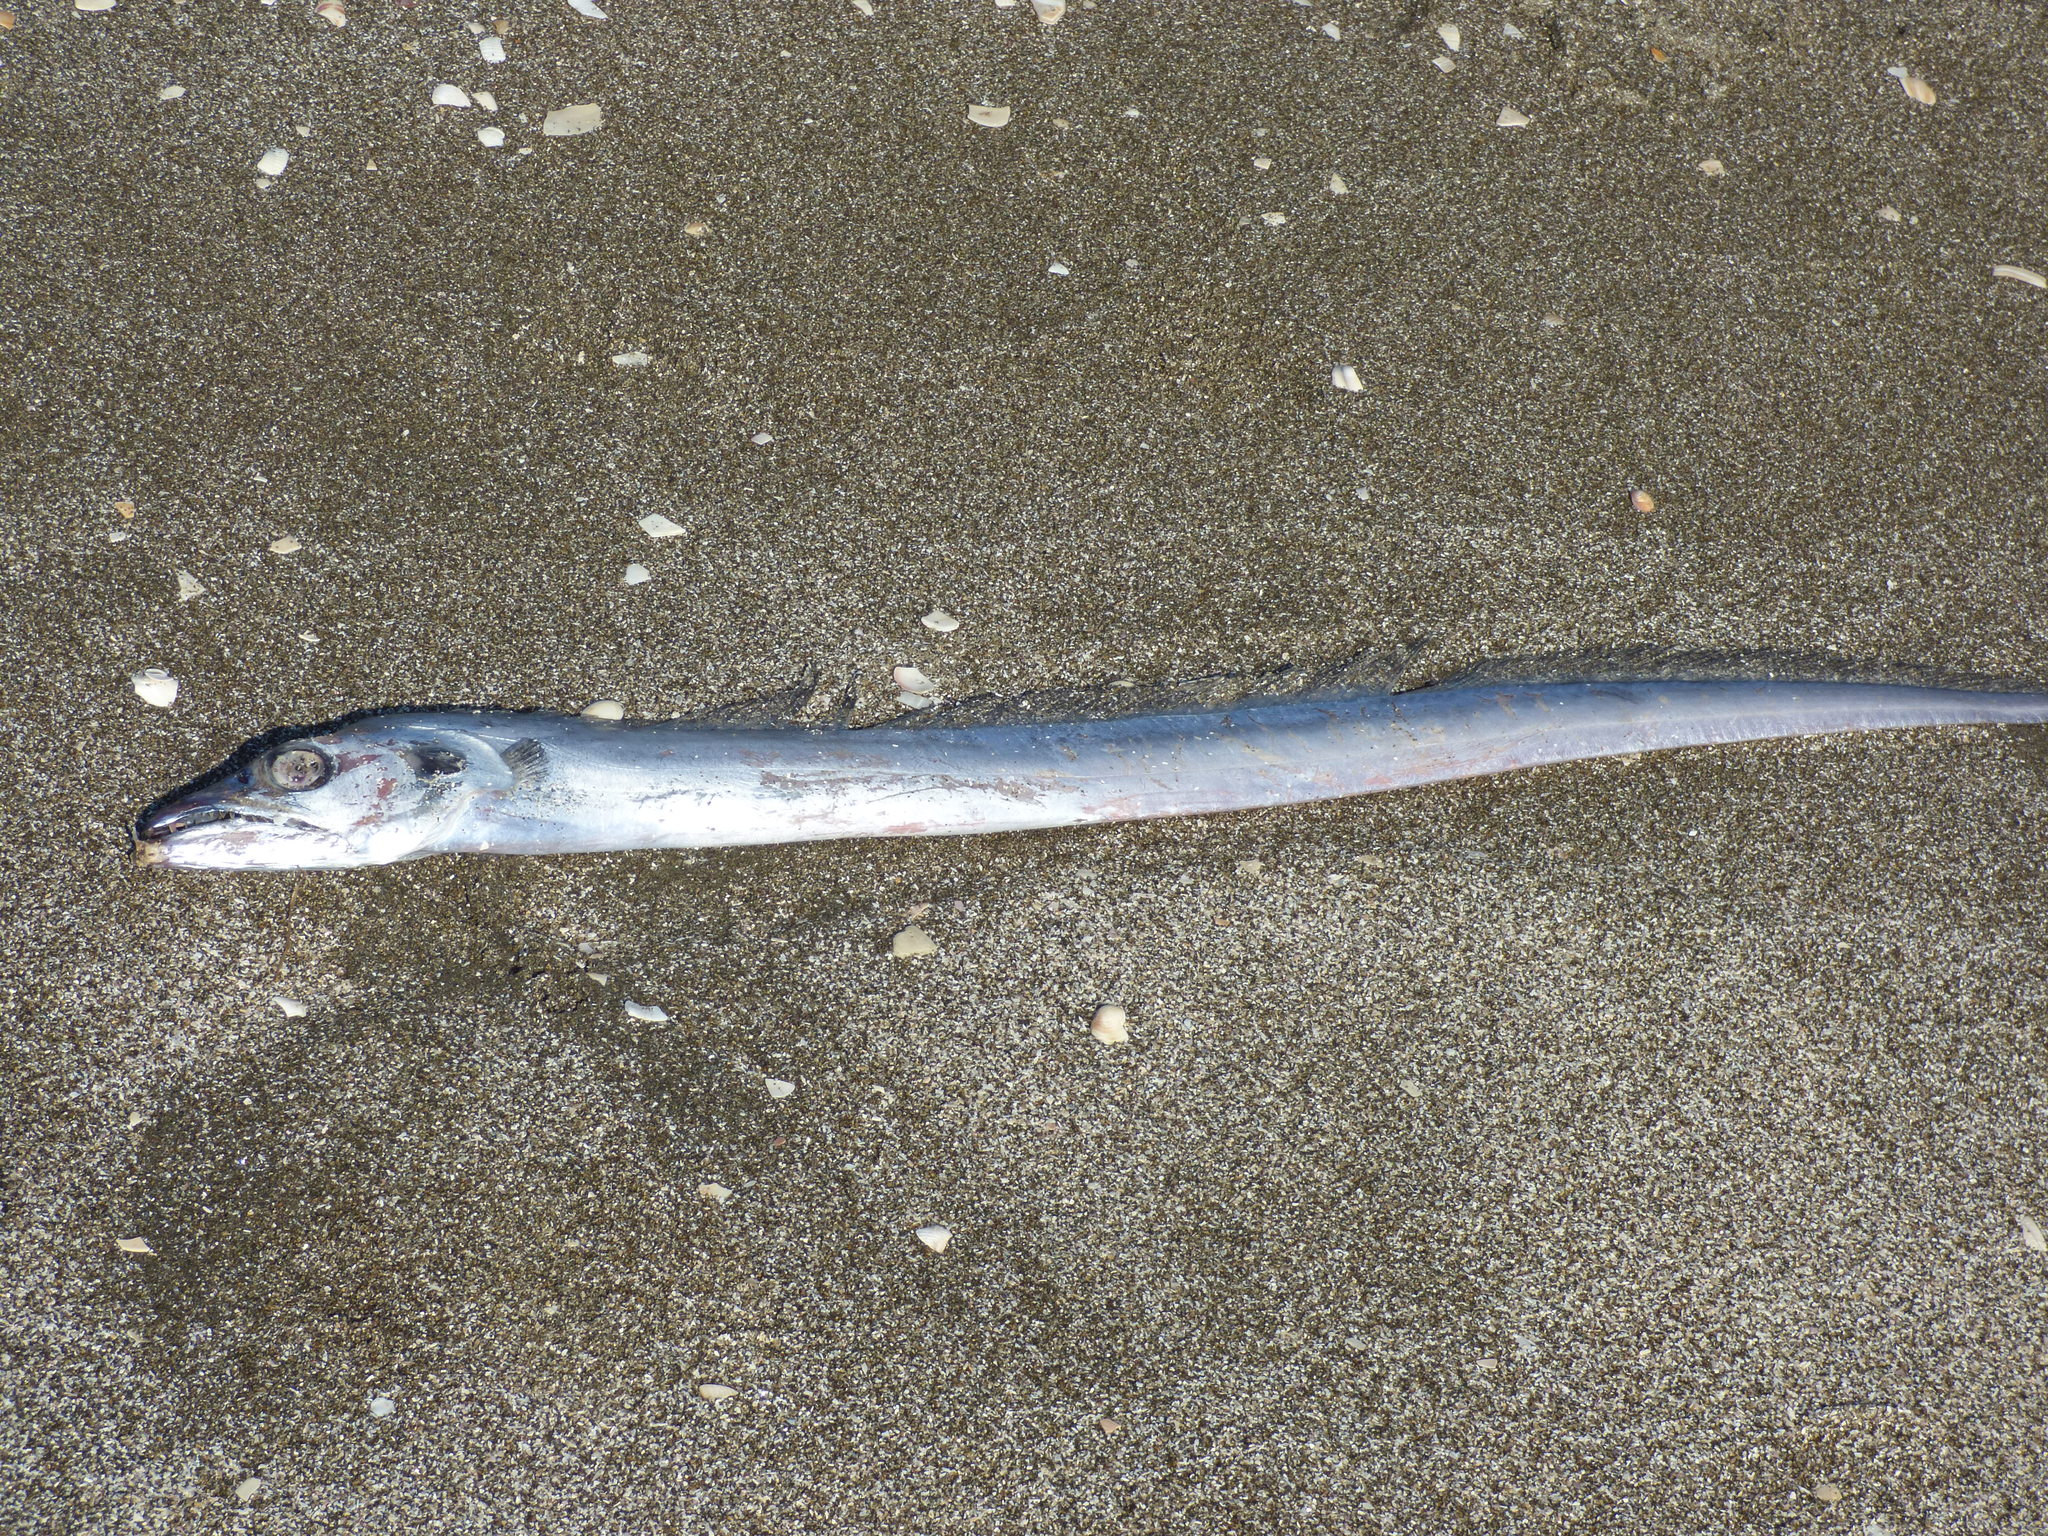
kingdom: Animalia
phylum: Chordata
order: Perciformes
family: Trichiuridae
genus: Trichiurus
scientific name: Trichiurus lepturus
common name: Largehead hairtail
